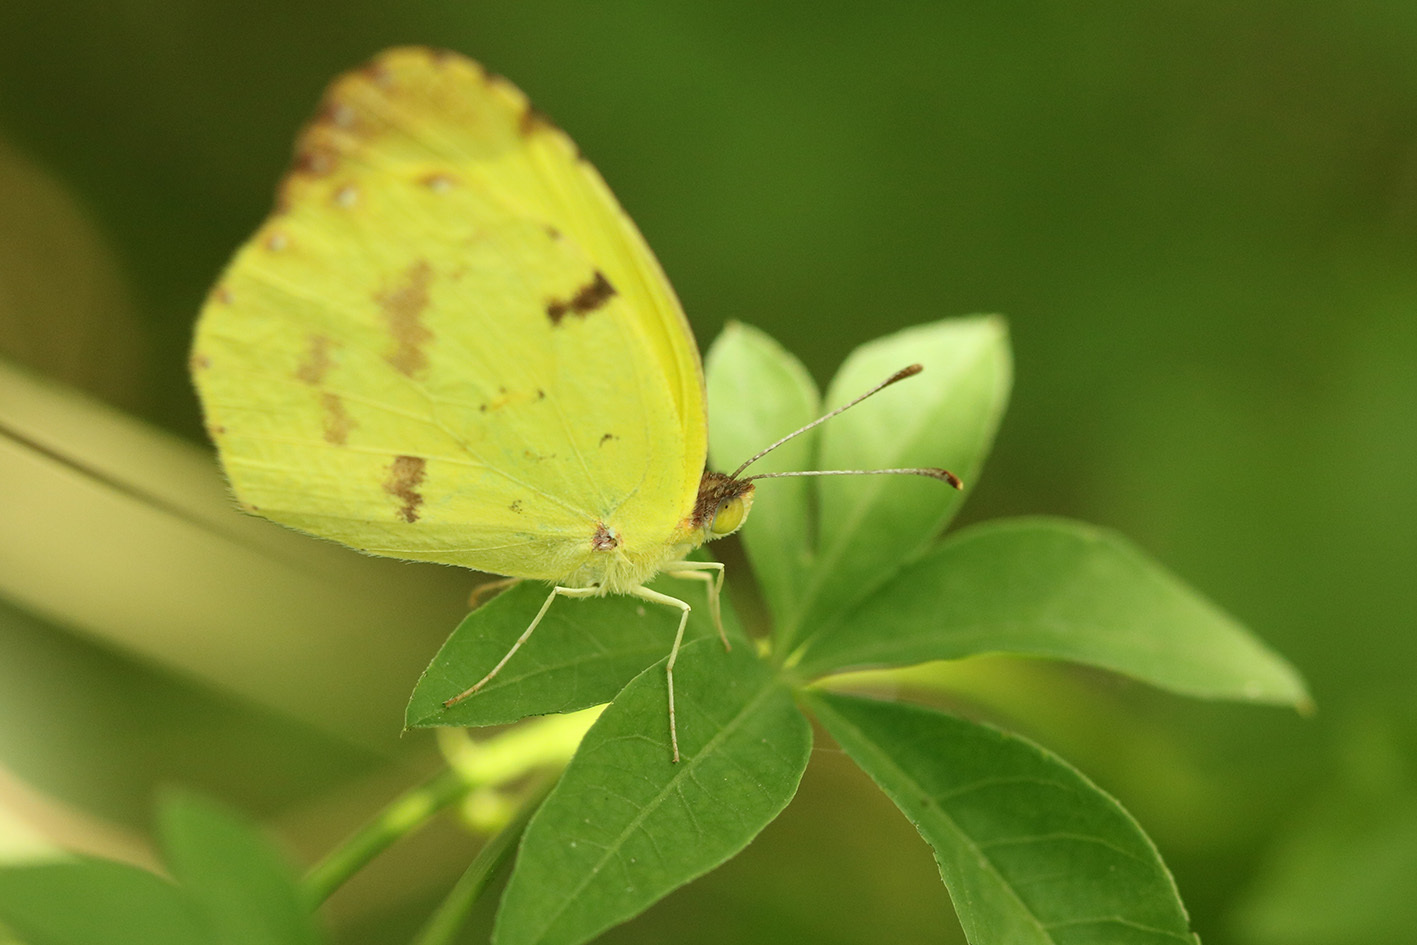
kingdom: Animalia
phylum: Arthropoda
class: Insecta
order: Lepidoptera
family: Pieridae
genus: Teriocolias
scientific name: Teriocolias
